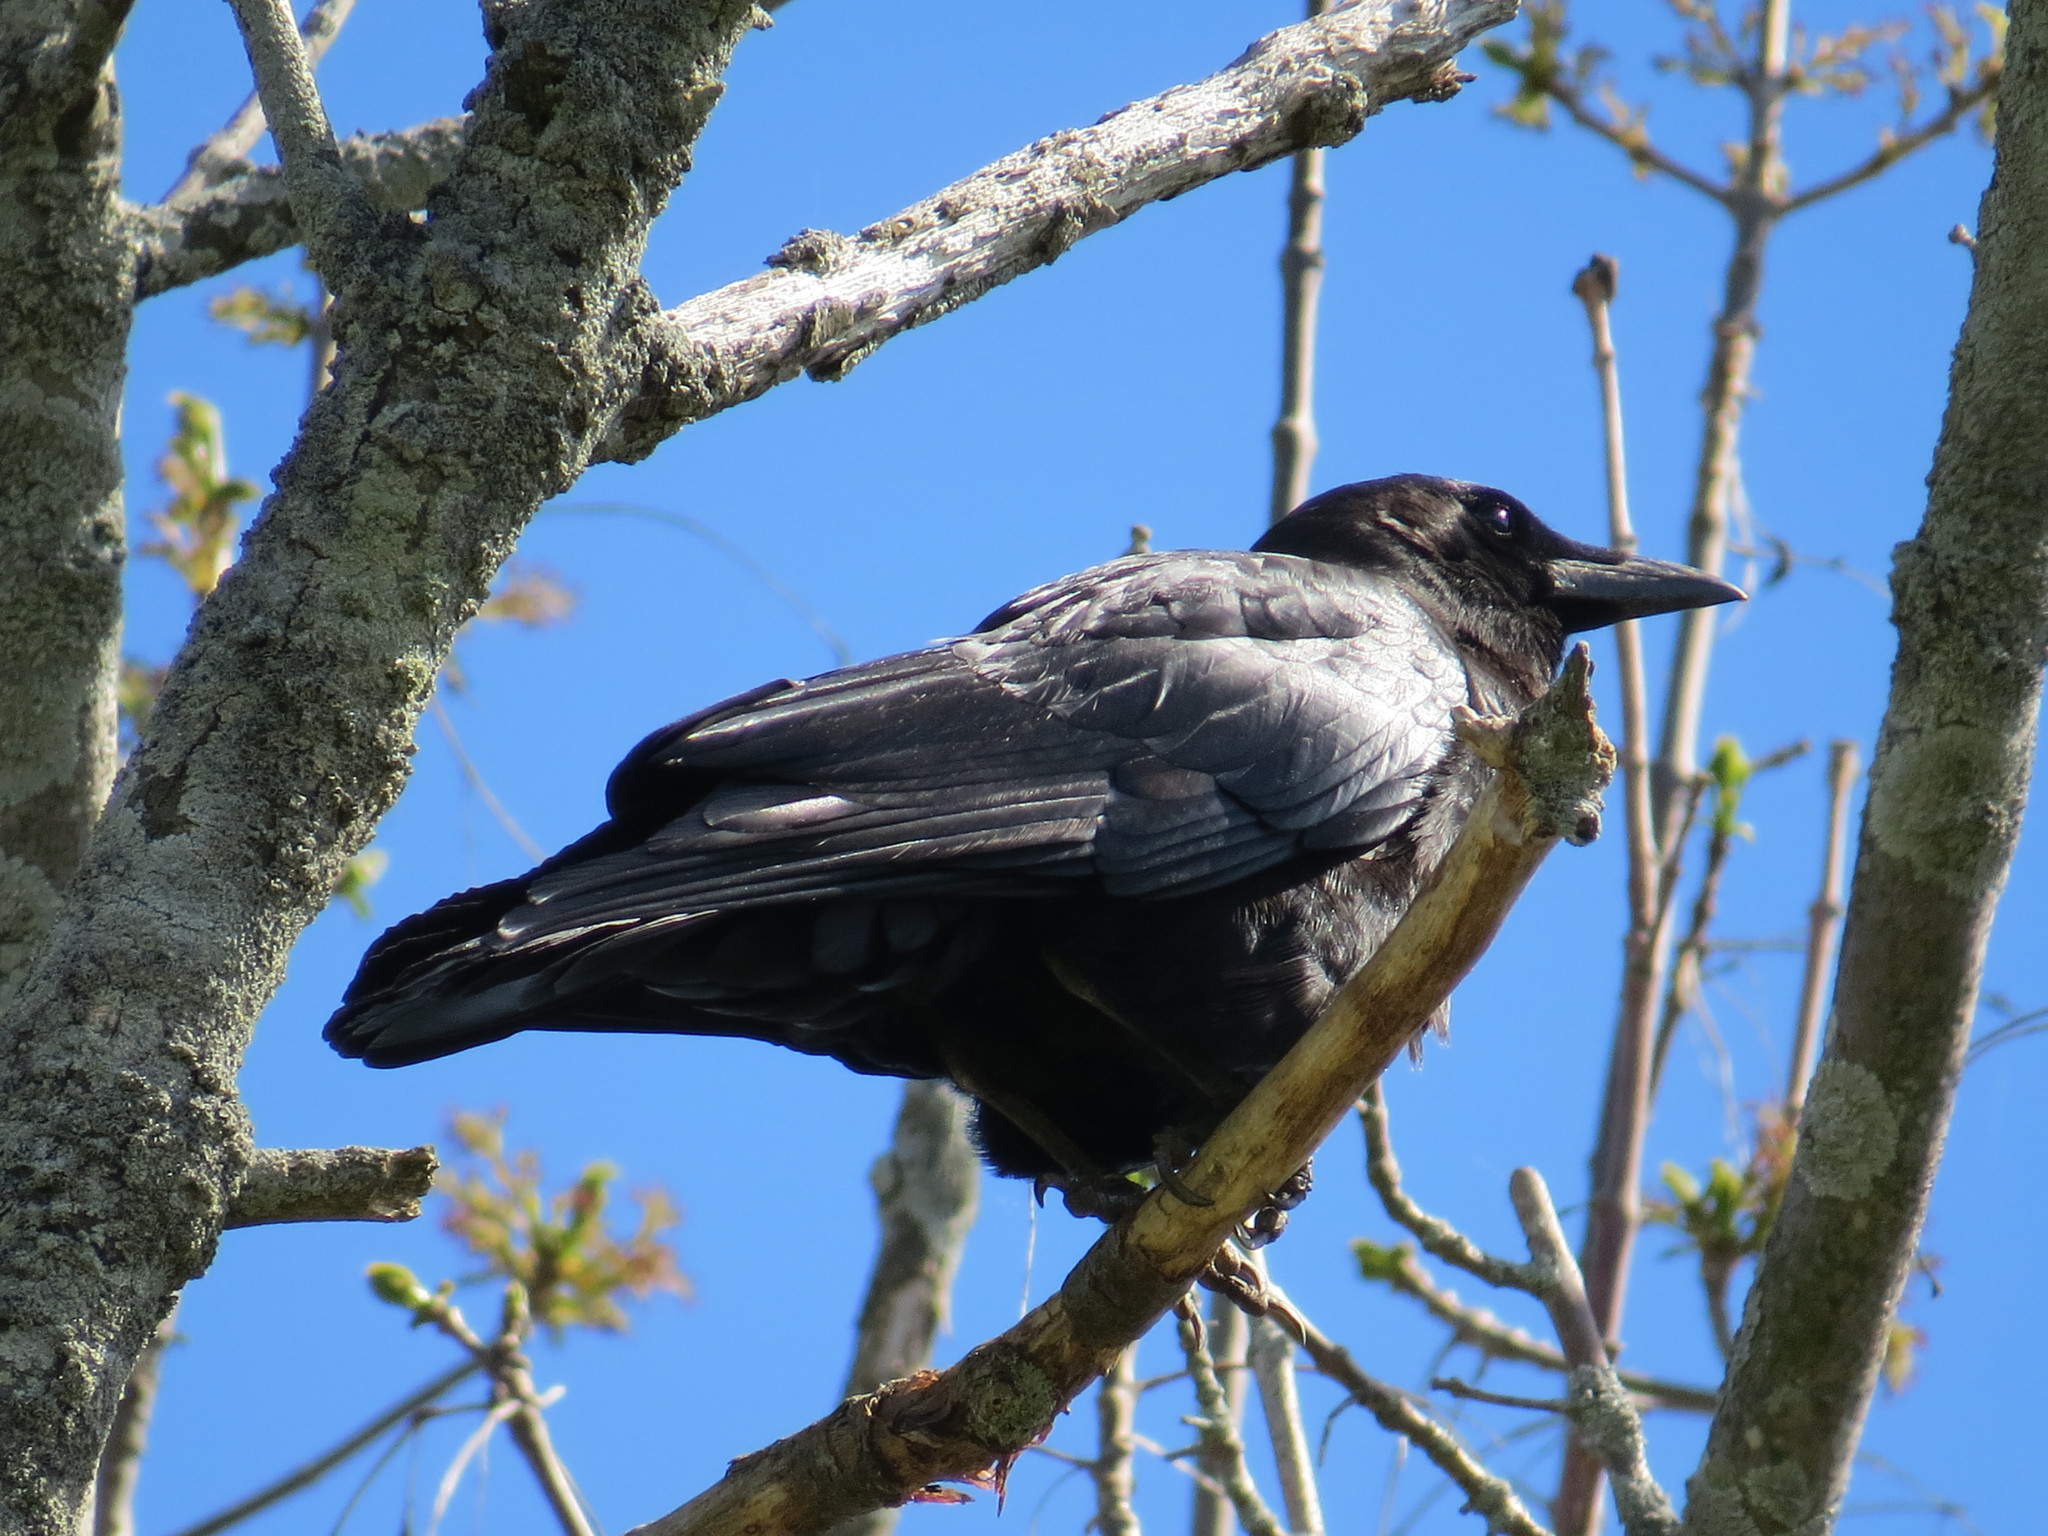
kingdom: Animalia
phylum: Chordata
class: Aves
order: Passeriformes
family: Corvidae
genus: Corvus
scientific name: Corvus brachyrhynchos
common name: American crow
